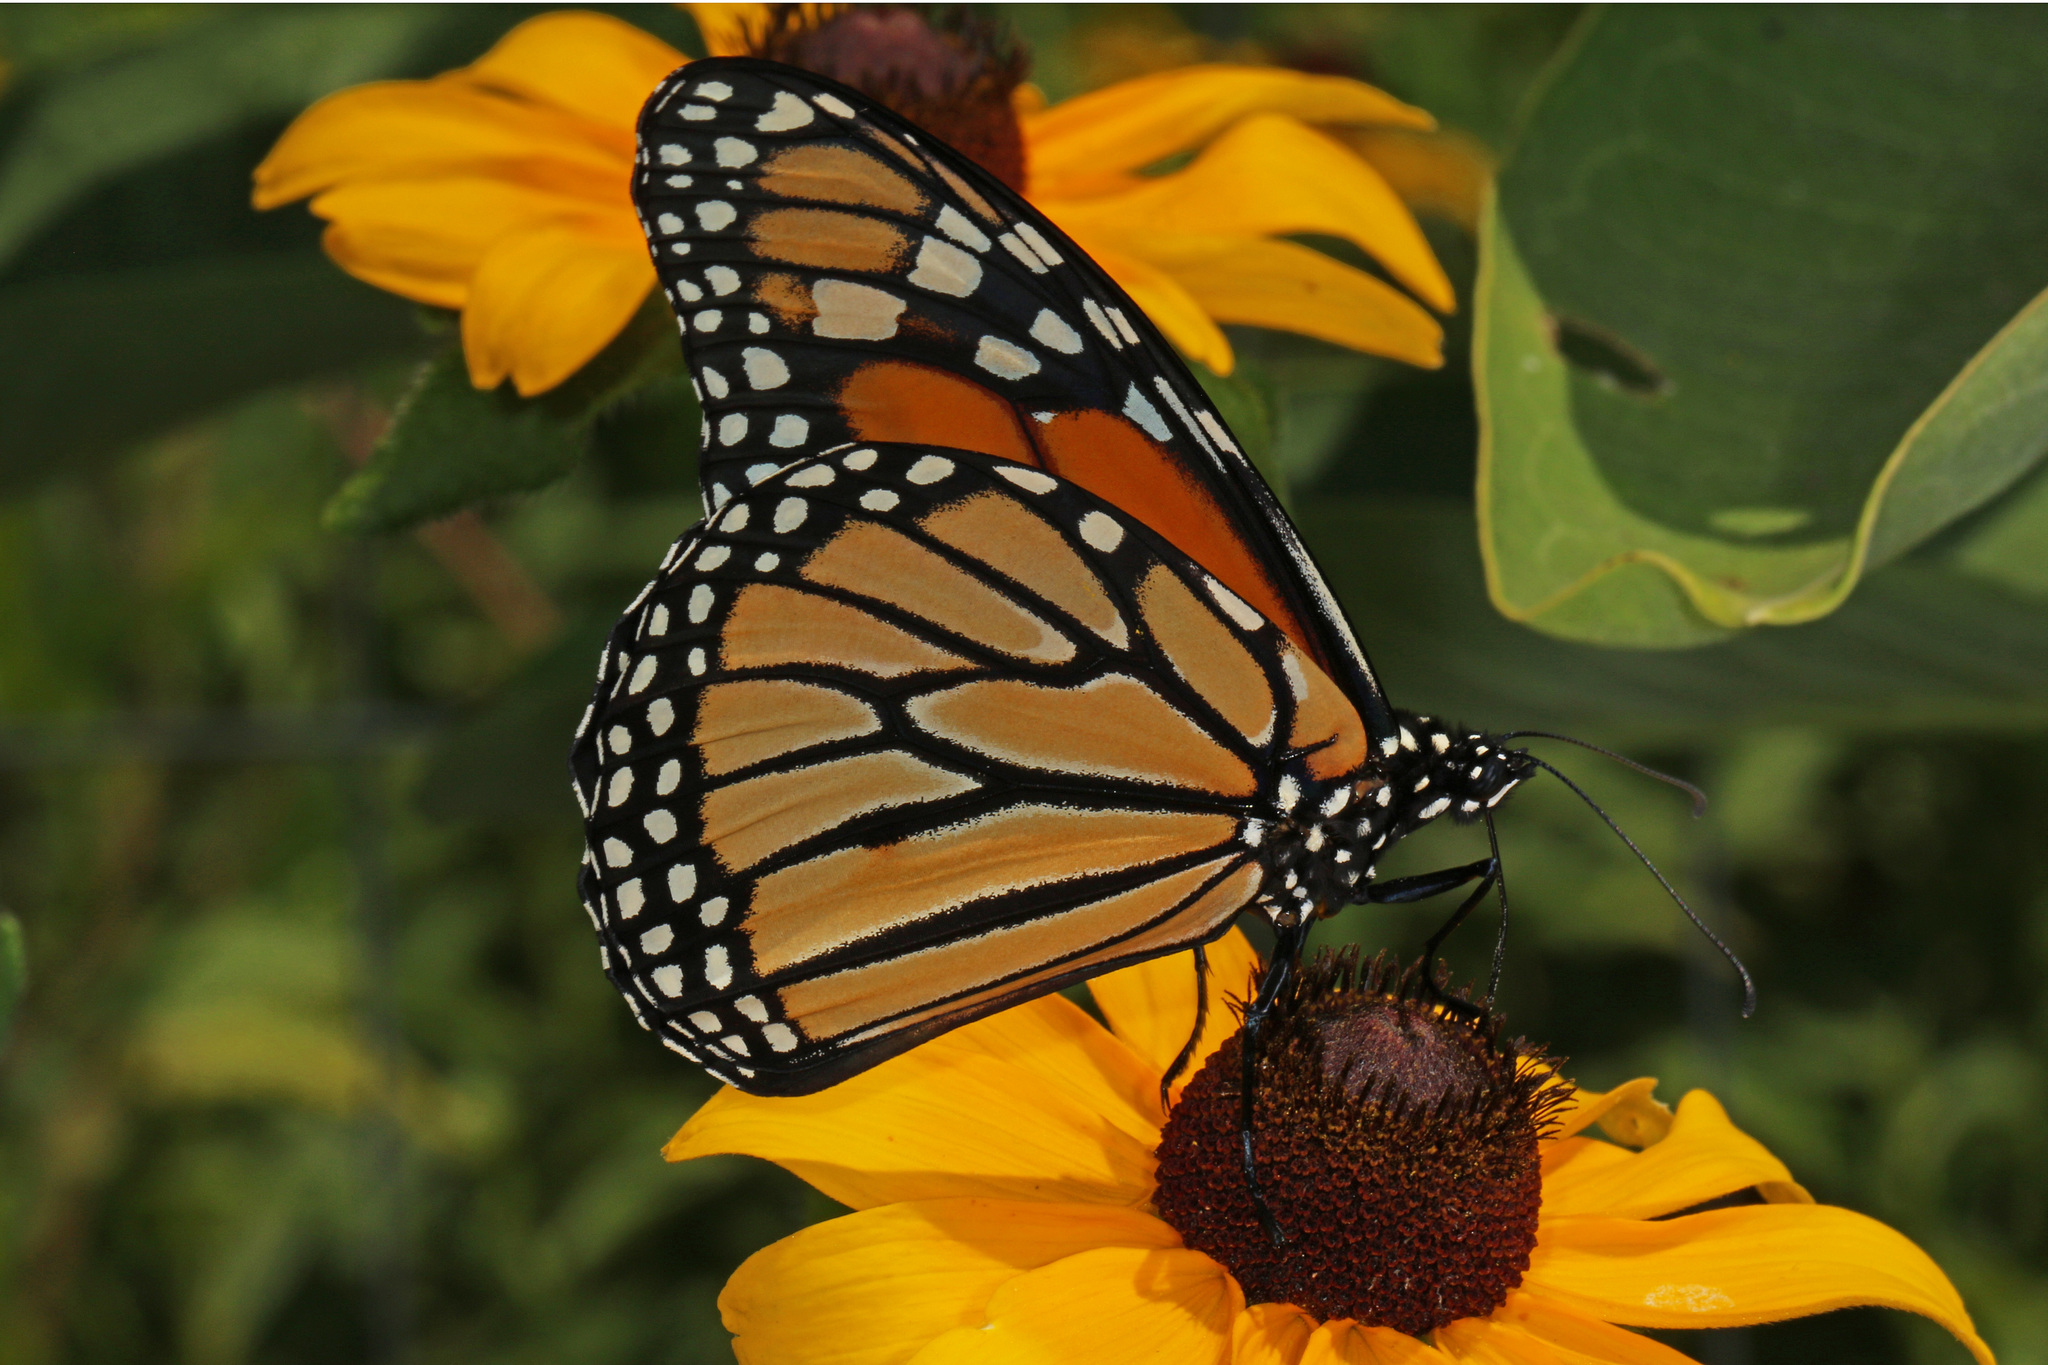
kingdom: Animalia
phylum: Arthropoda
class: Insecta
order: Lepidoptera
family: Nymphalidae
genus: Danaus
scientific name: Danaus plexippus
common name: Monarch
